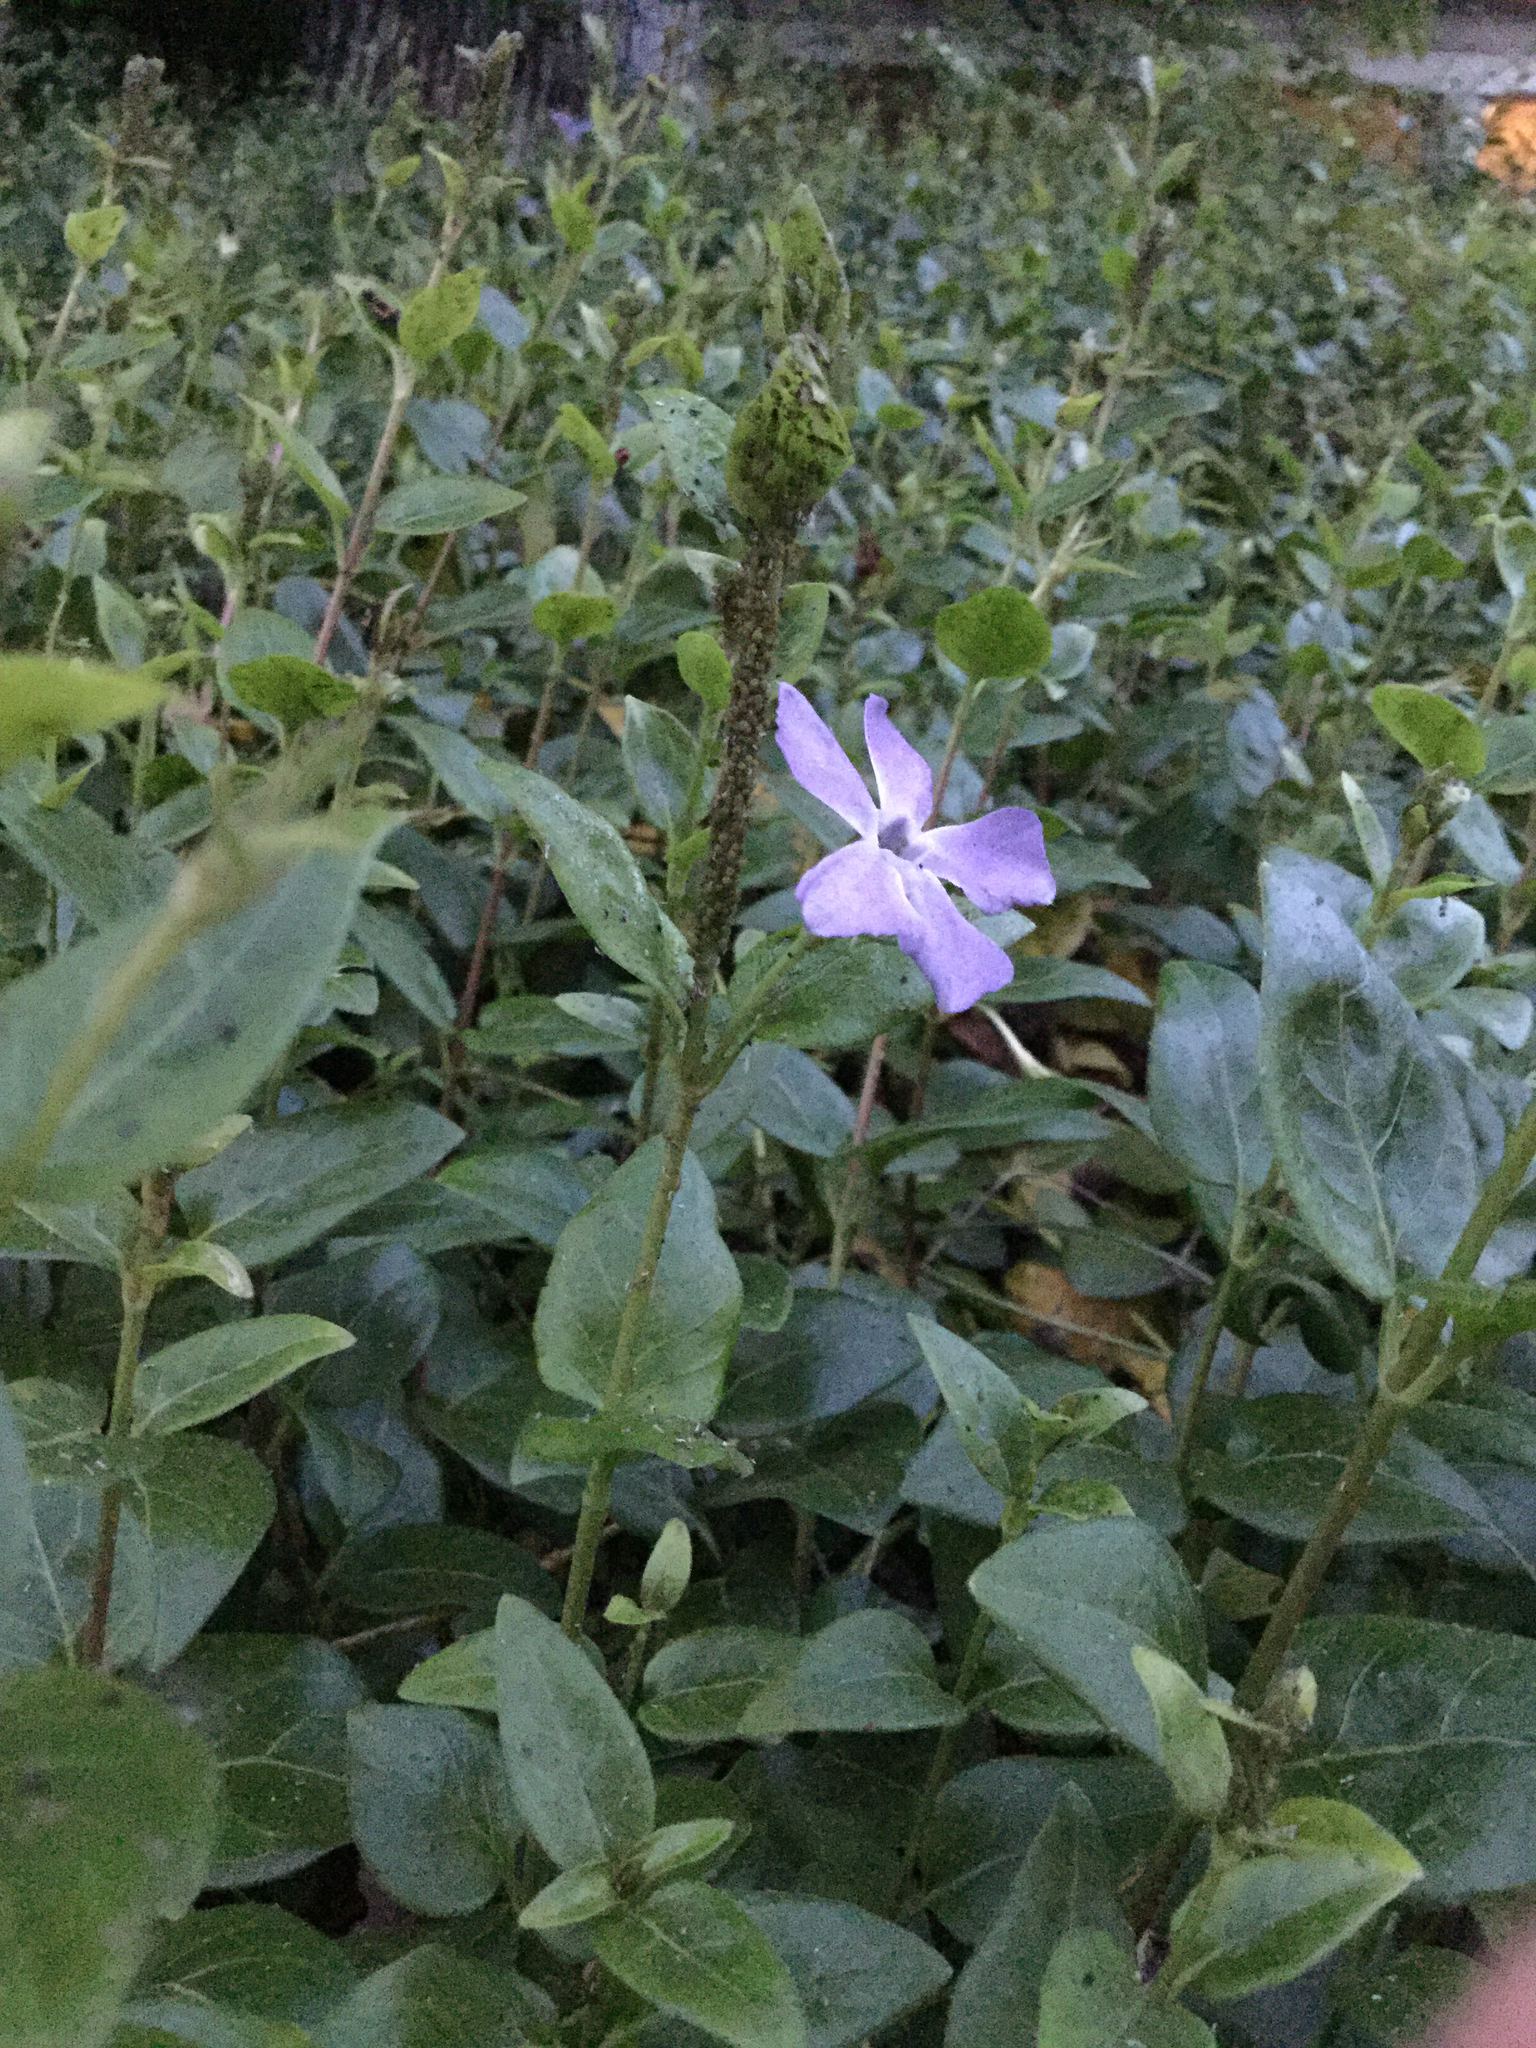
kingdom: Plantae
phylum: Tracheophyta
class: Magnoliopsida
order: Gentianales
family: Apocynaceae
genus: Vinca
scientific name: Vinca major
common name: Greater periwinkle
